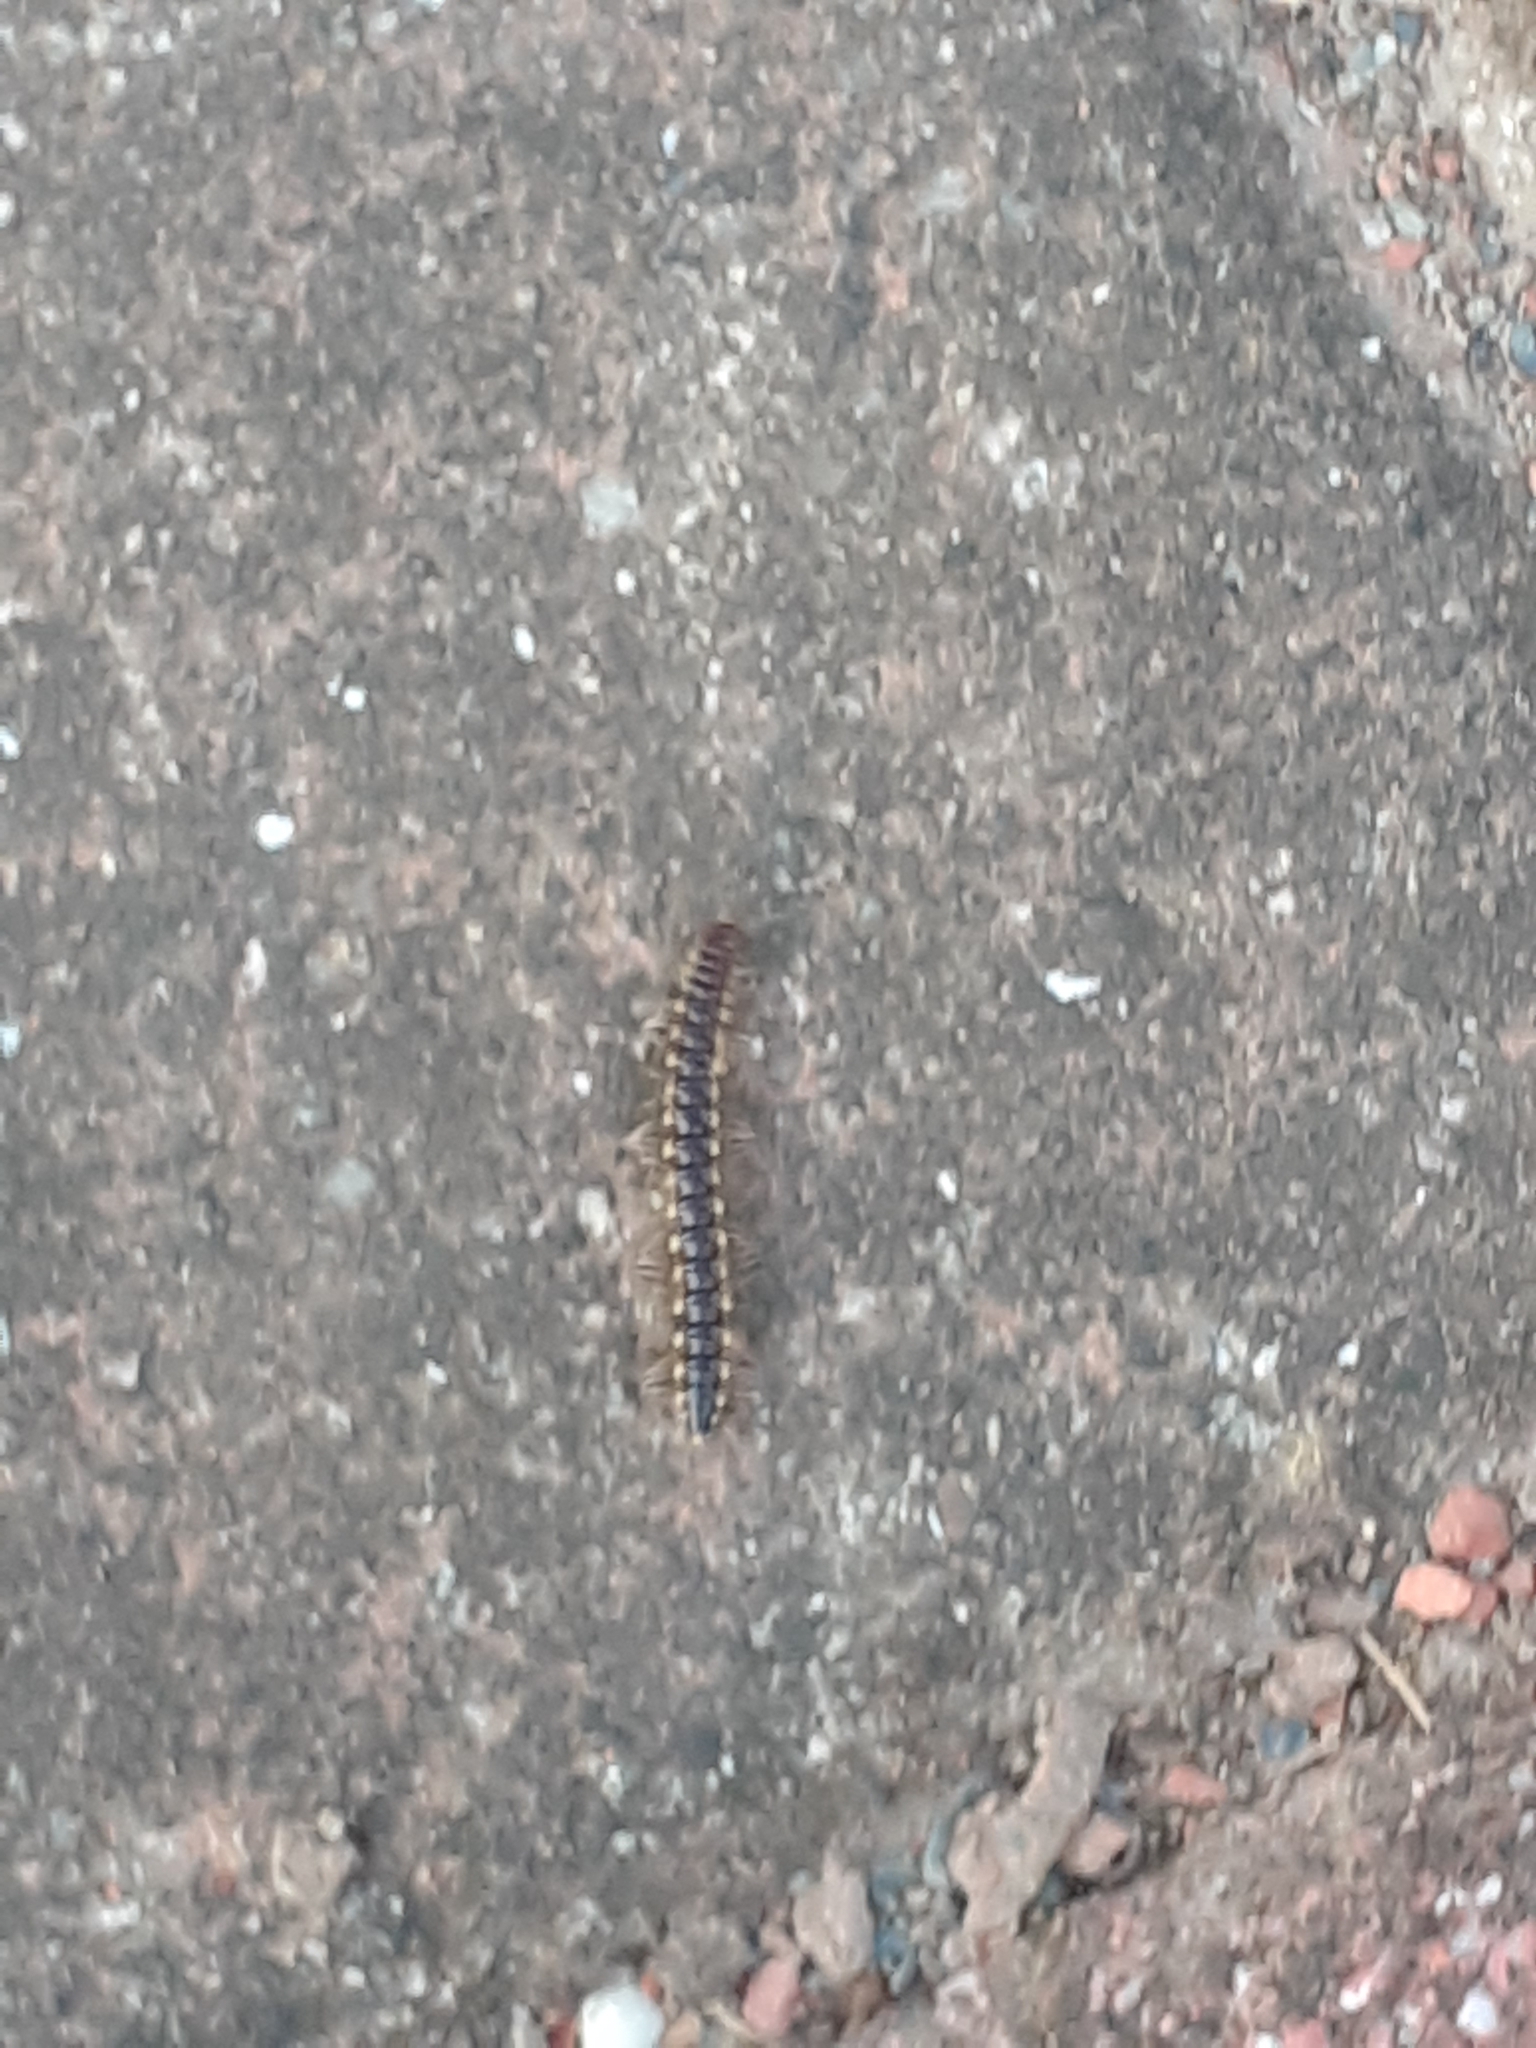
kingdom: Animalia
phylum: Arthropoda
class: Diplopoda
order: Polydesmida
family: Paradoxosomatidae
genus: Orthomorpha
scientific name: Orthomorpha coarctata
